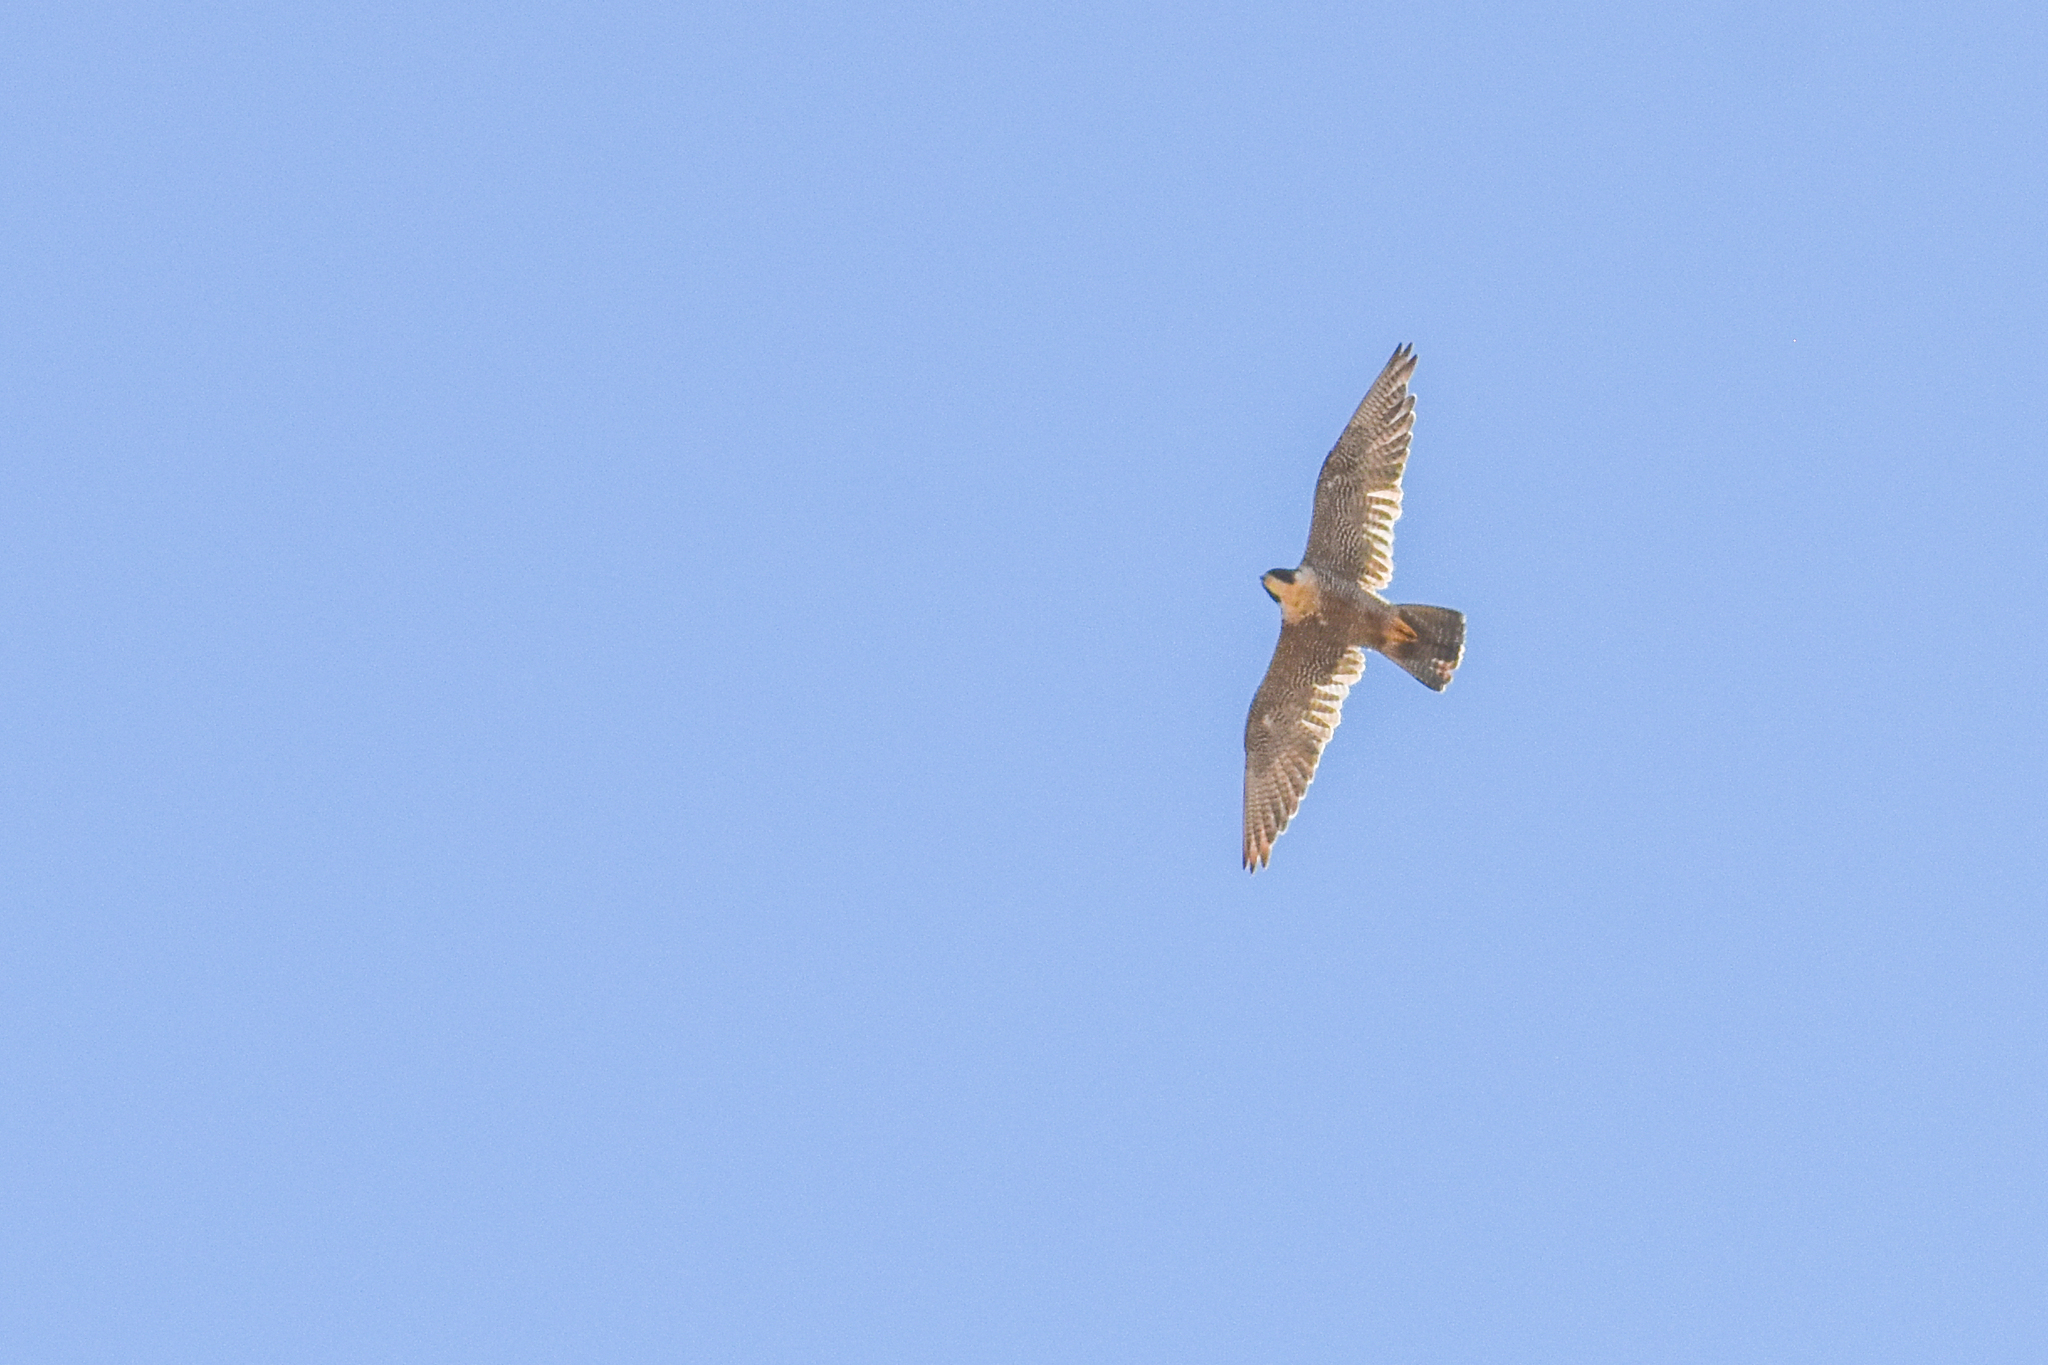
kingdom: Animalia
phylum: Chordata
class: Aves
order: Falconiformes
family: Falconidae
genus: Falco
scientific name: Falco peregrinus
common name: Peregrine falcon
